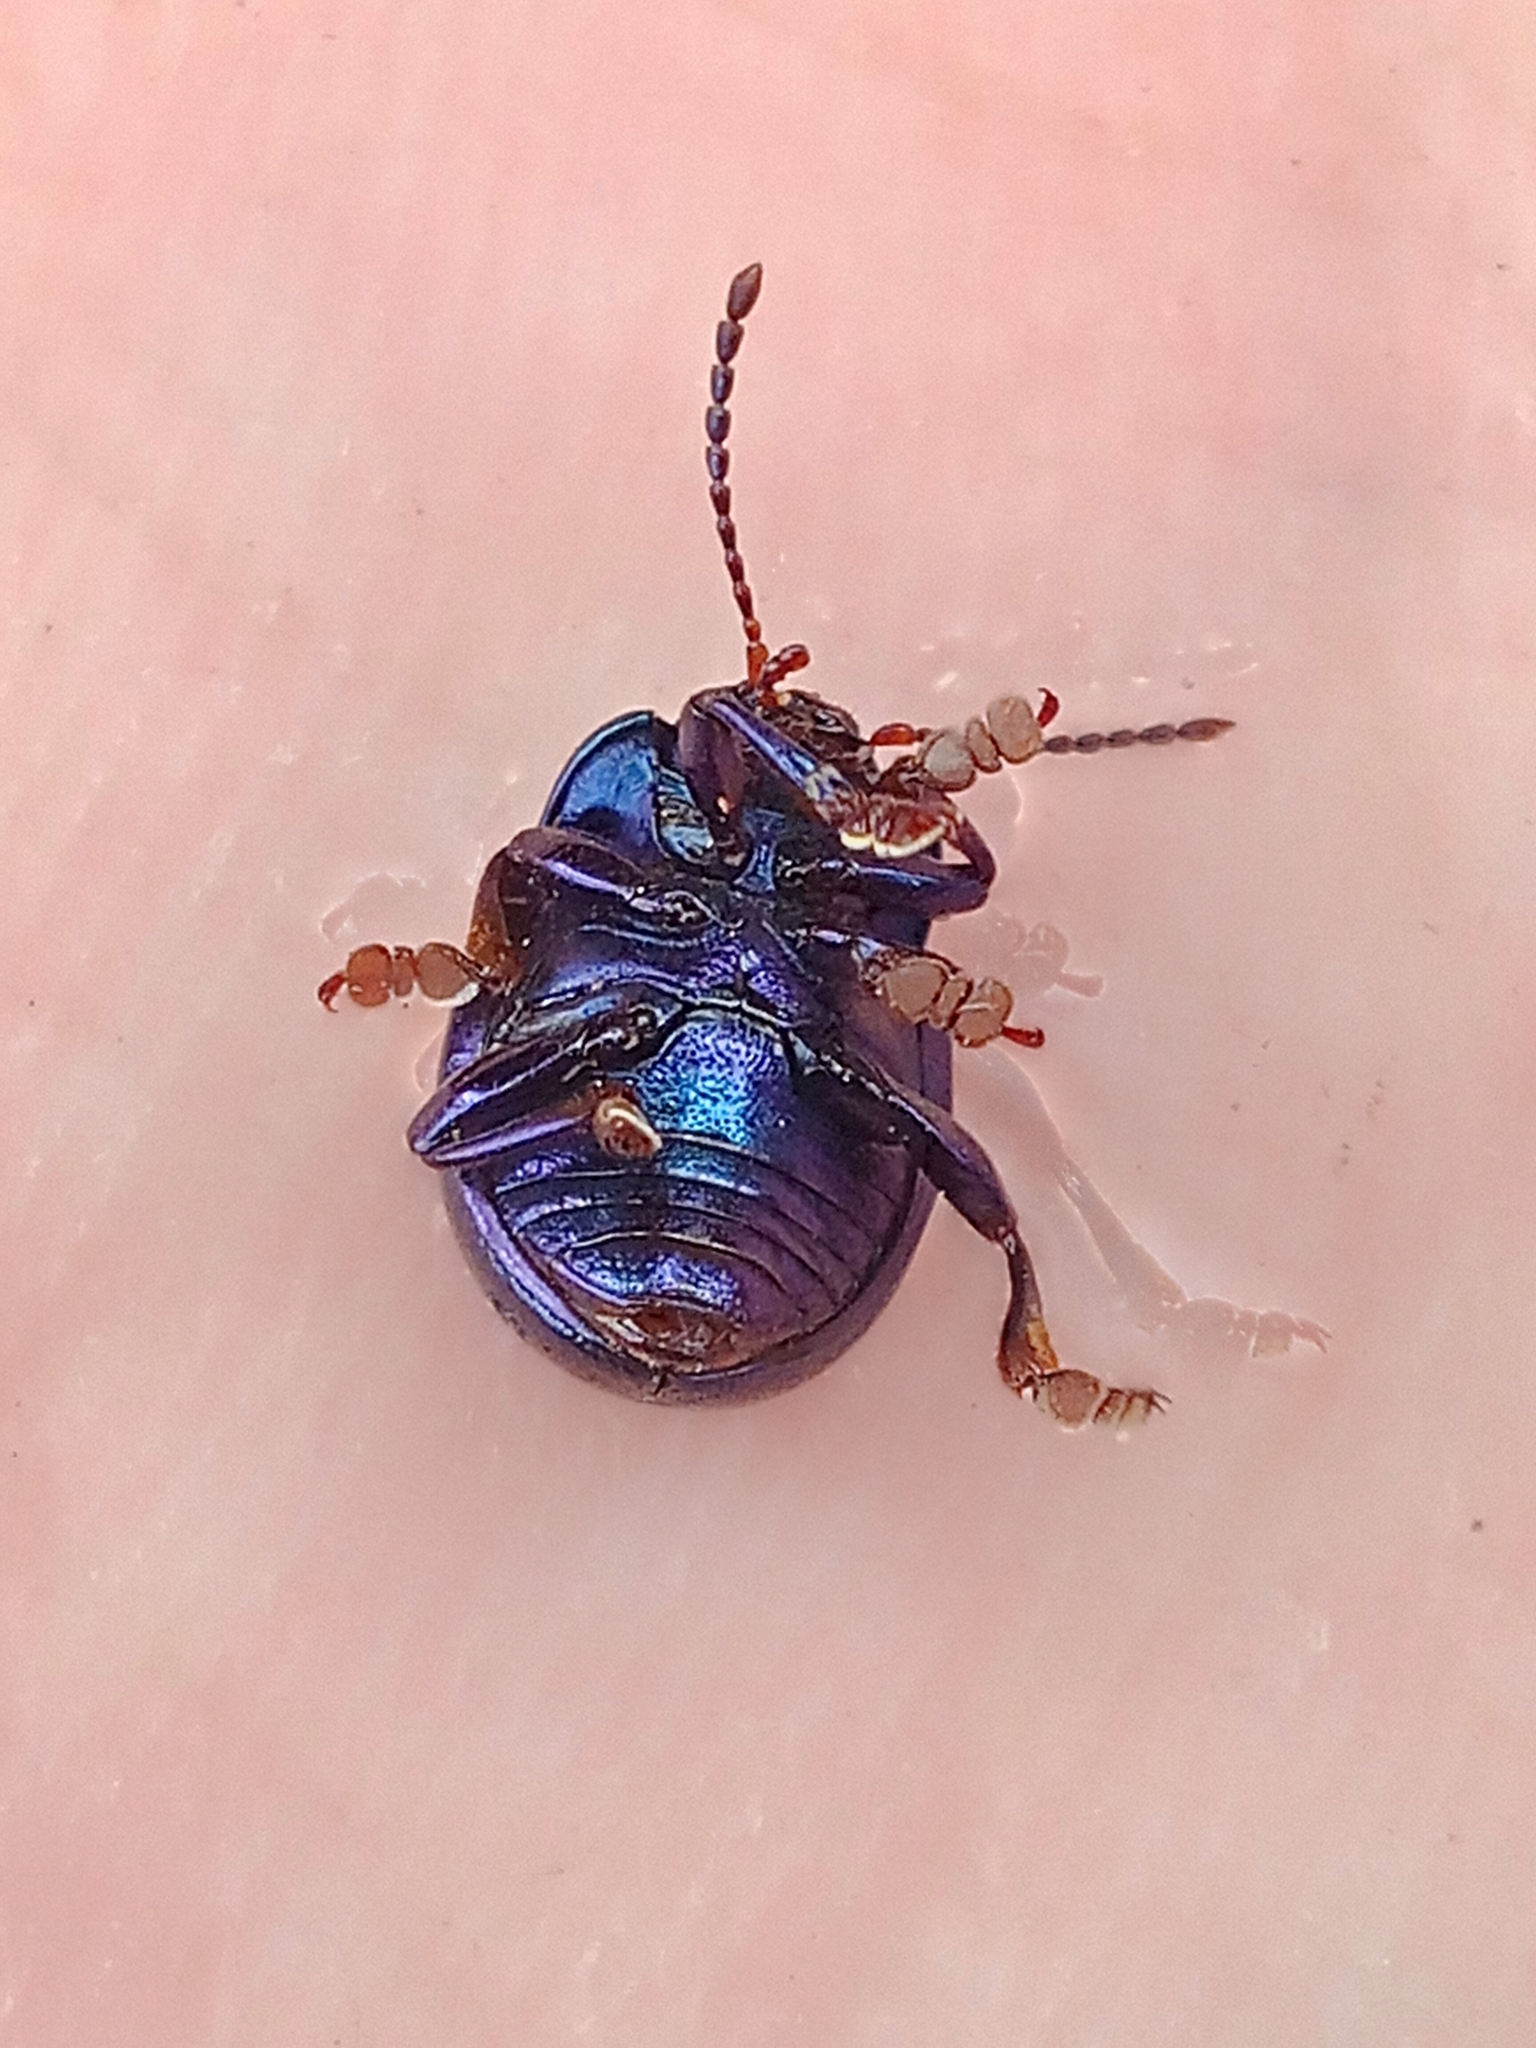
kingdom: Animalia
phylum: Arthropoda
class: Insecta
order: Coleoptera
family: Chrysomelidae
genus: Chrysolina
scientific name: Chrysolina sturmi
